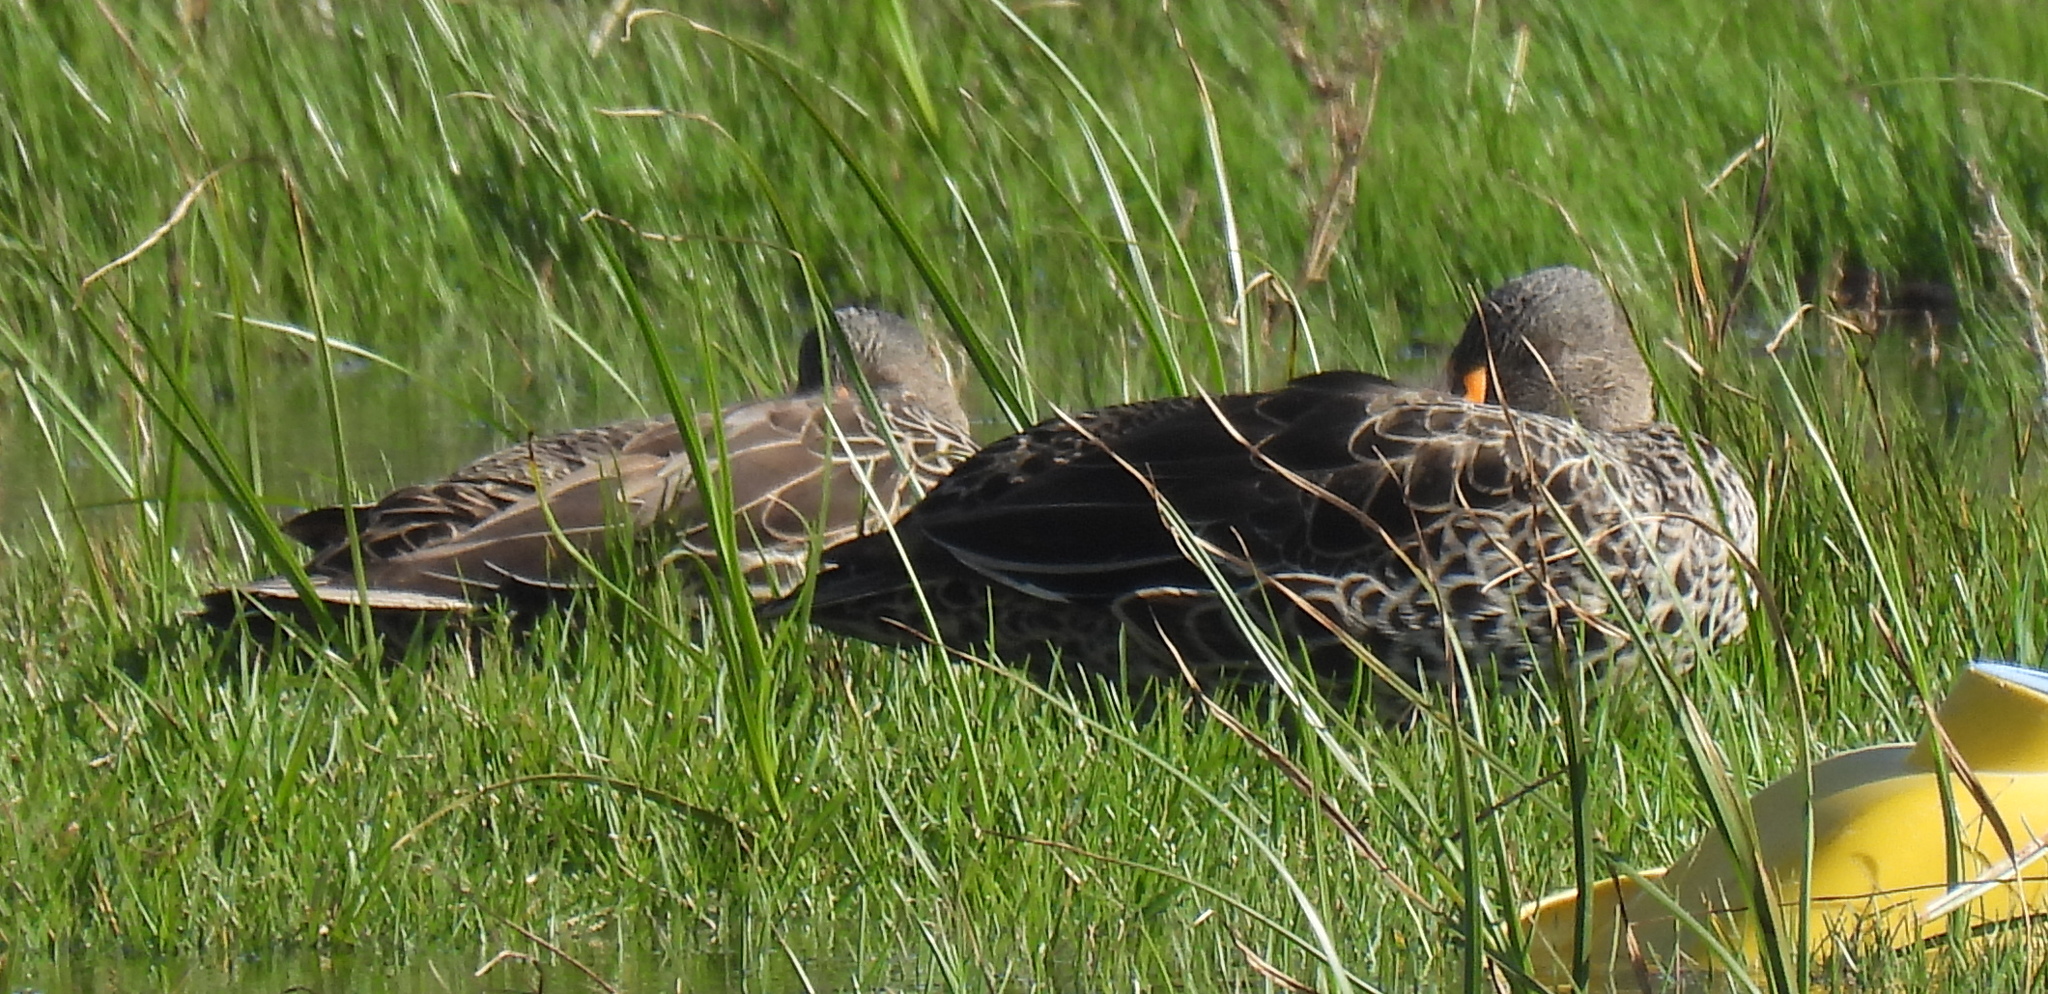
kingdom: Animalia
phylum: Chordata
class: Aves
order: Anseriformes
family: Anatidae
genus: Anas
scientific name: Anas undulata
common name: Yellow-billed duck
